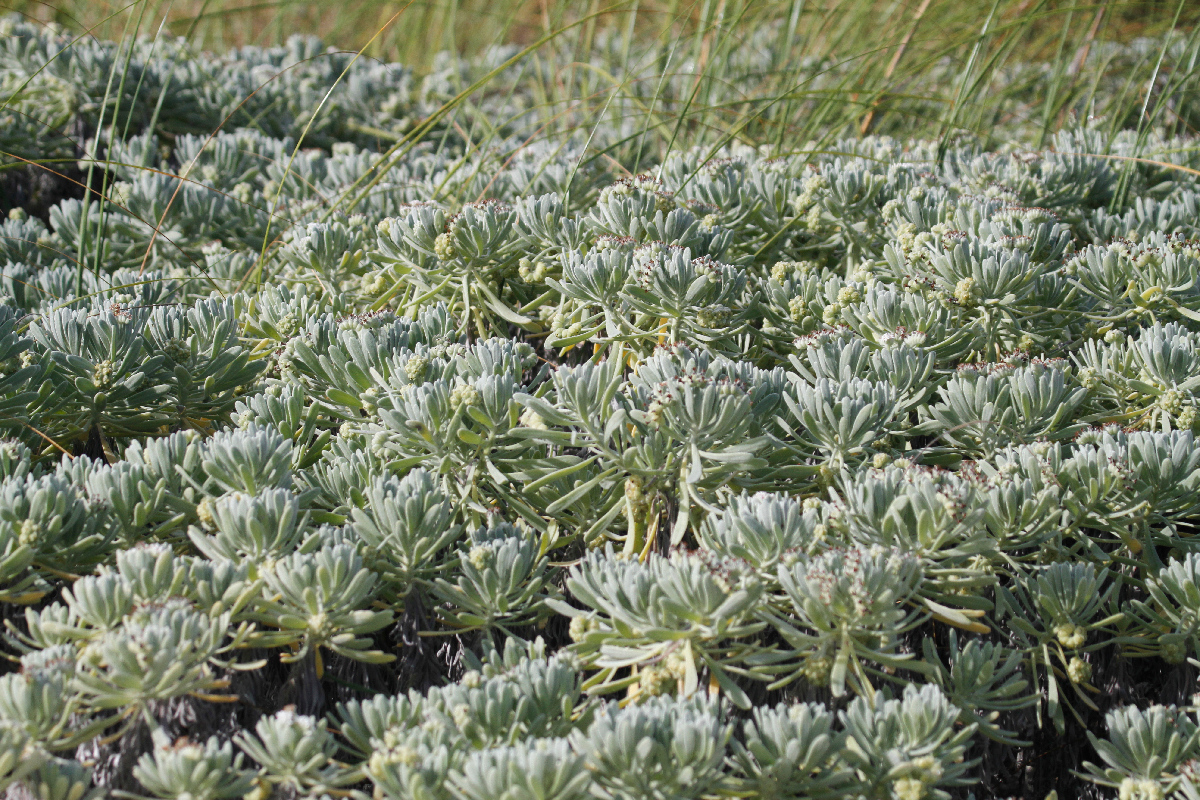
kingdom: Plantae
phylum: Tracheophyta
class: Magnoliopsida
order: Boraginales
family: Heliotropiaceae
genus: Tournefortia
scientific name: Tournefortia gnaphalodes
